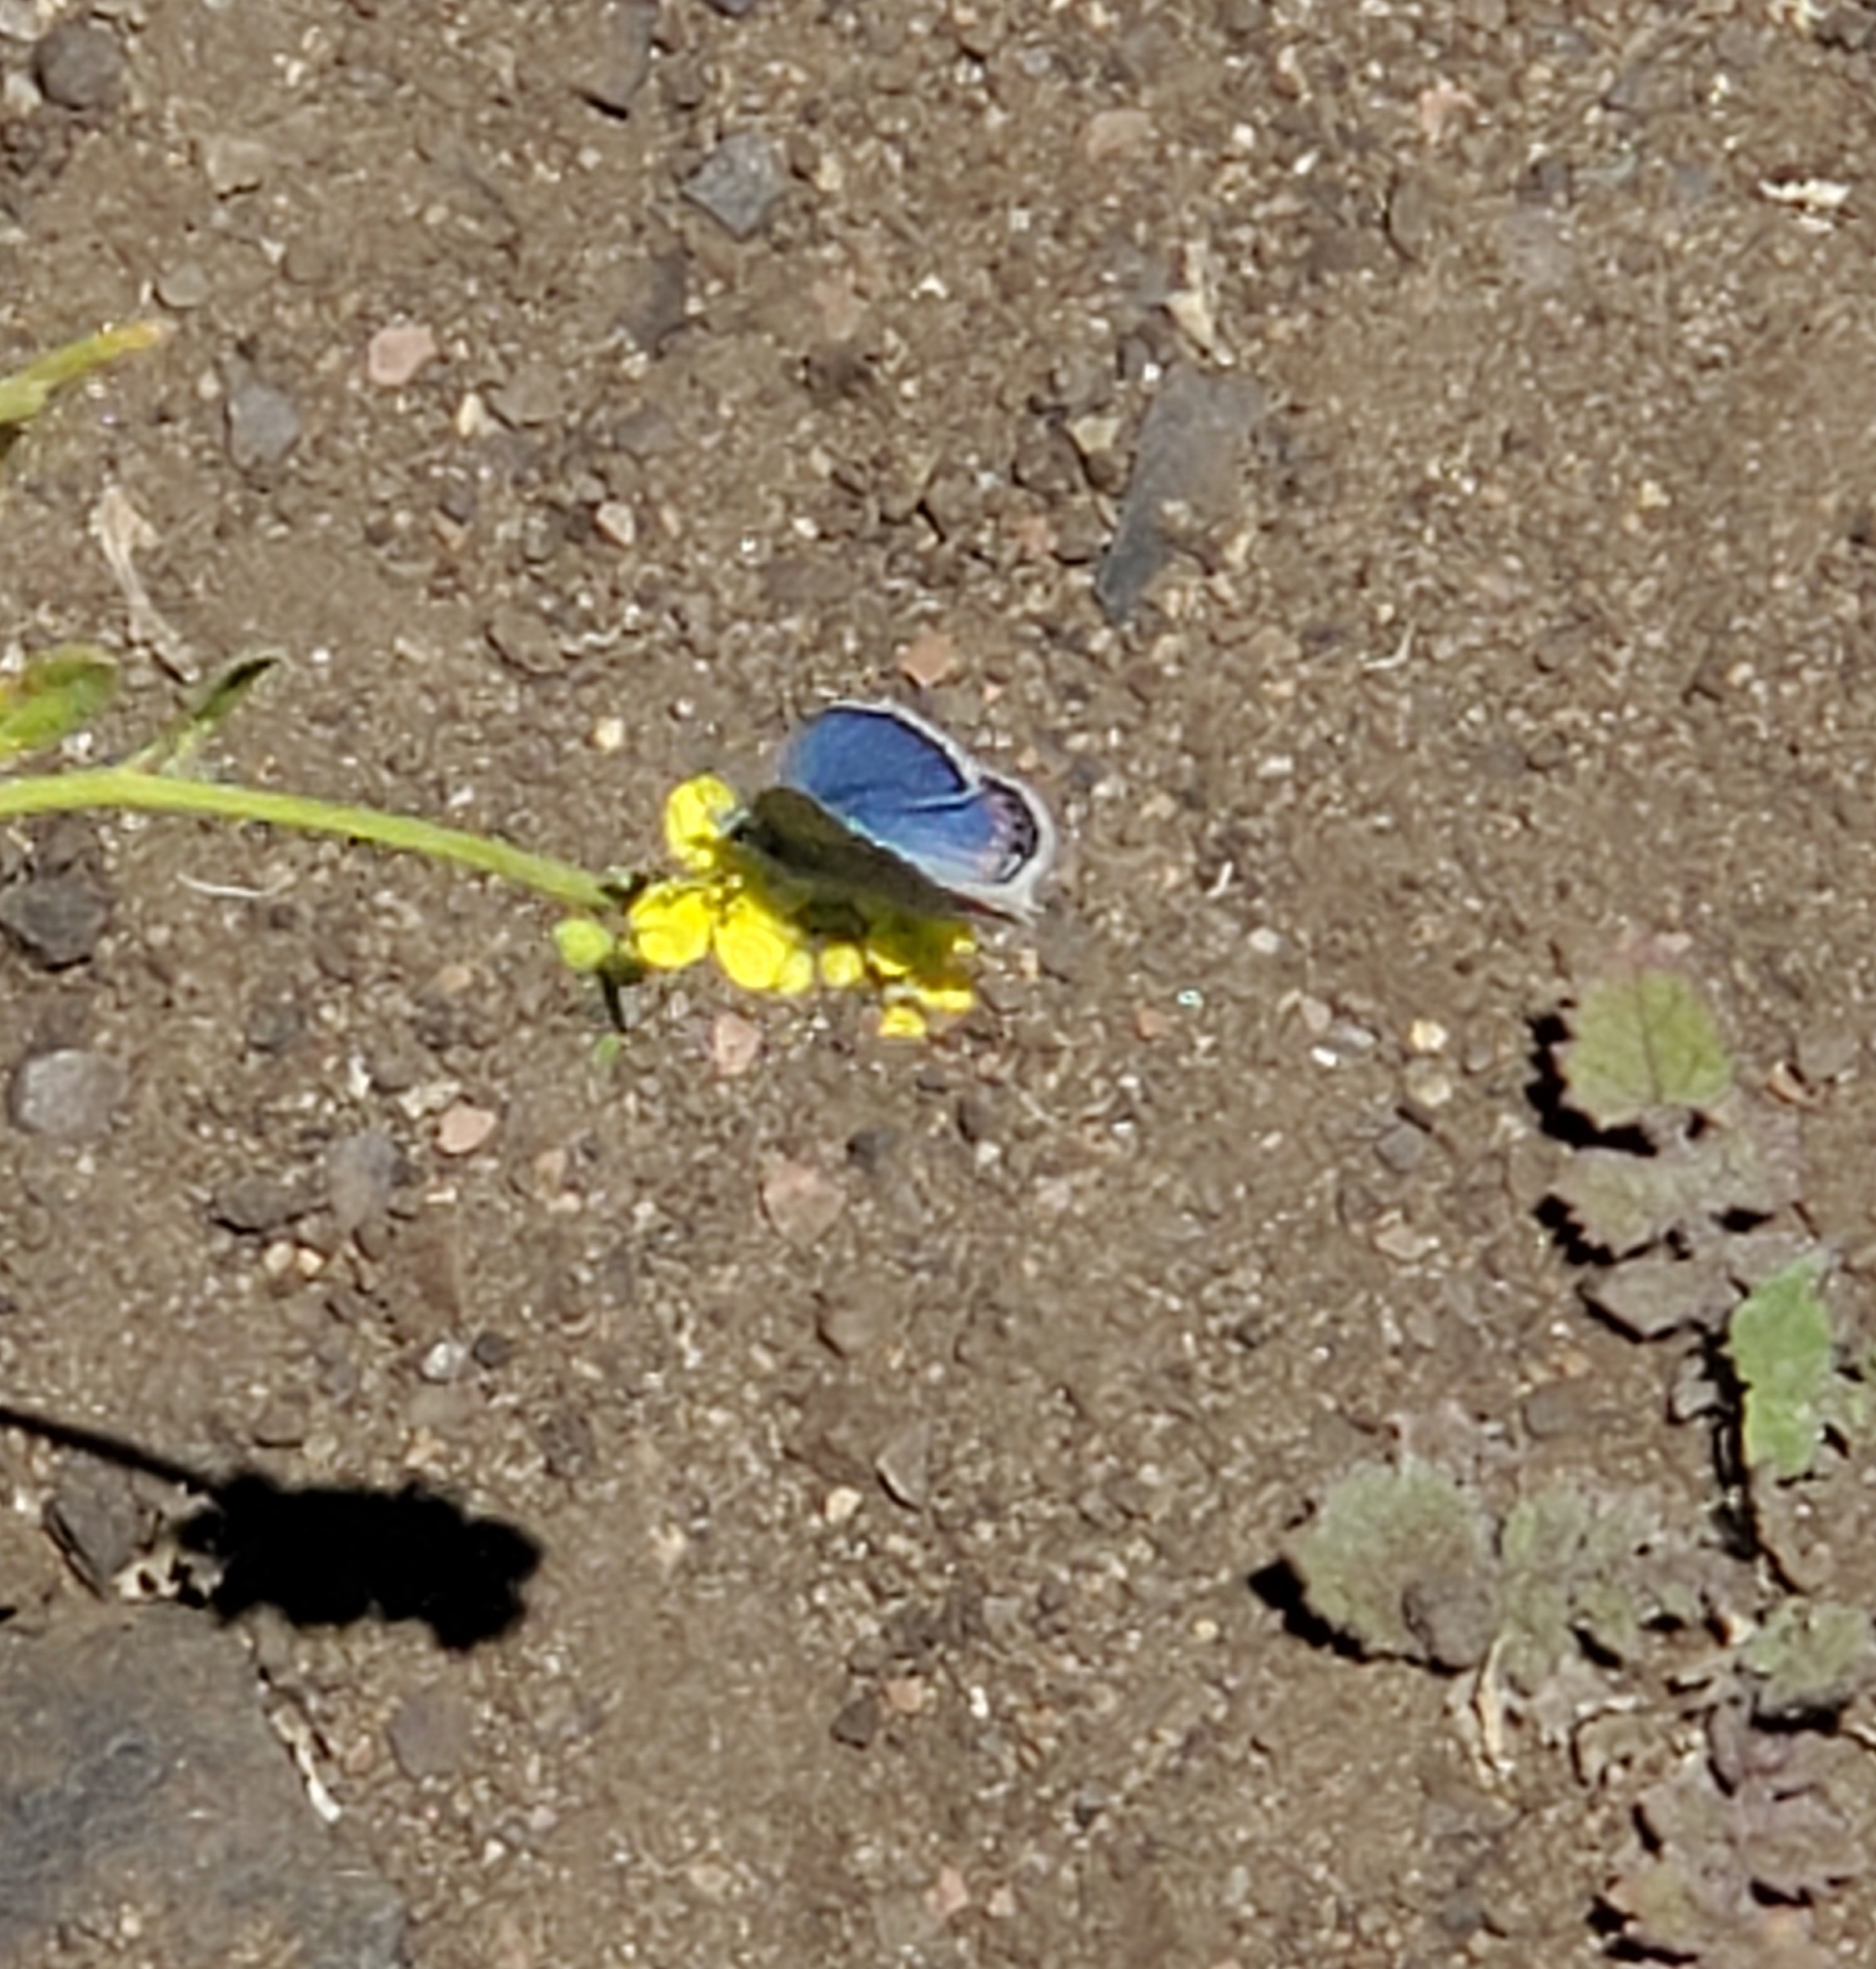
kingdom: Animalia
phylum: Arthropoda
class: Insecta
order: Lepidoptera
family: Lycaenidae
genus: Icaricia
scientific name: Icaricia acmon
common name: Acmon blue
